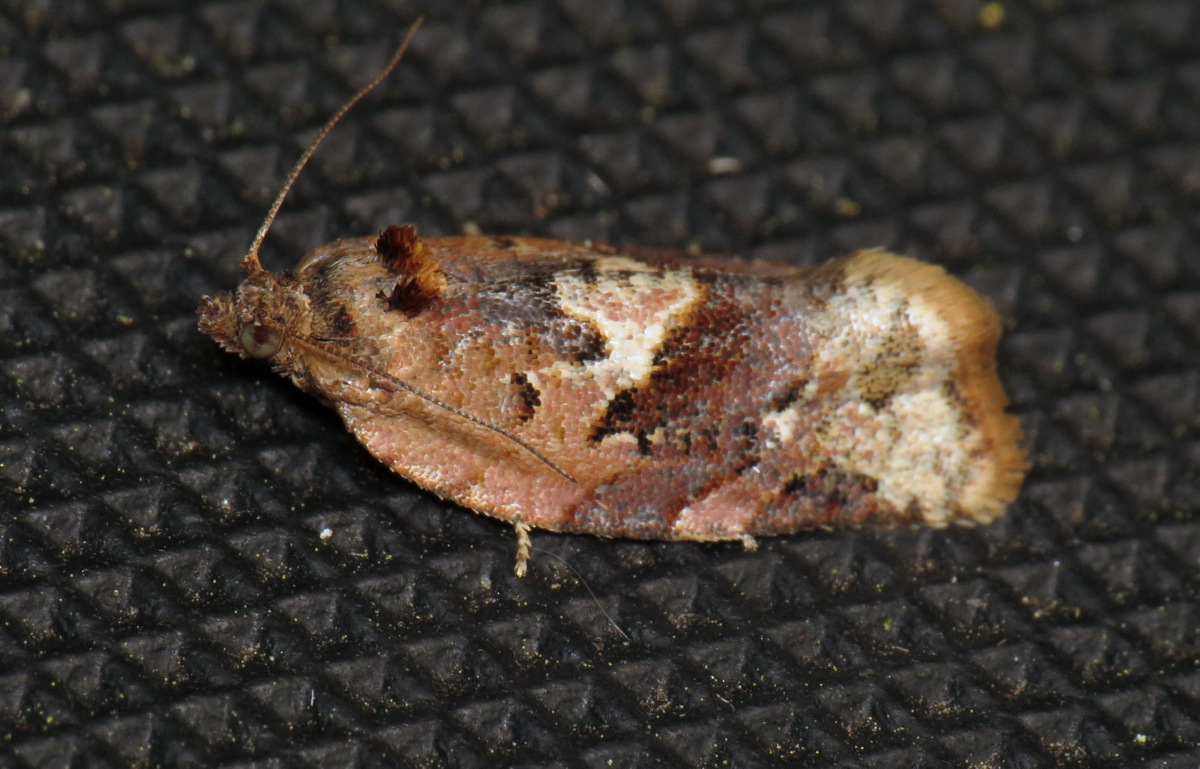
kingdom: Animalia
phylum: Arthropoda
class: Insecta
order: Lepidoptera
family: Tortricidae
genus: Argyrotaenia
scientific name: Argyrotaenia velutinana
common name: Red-banded leafroller moth
